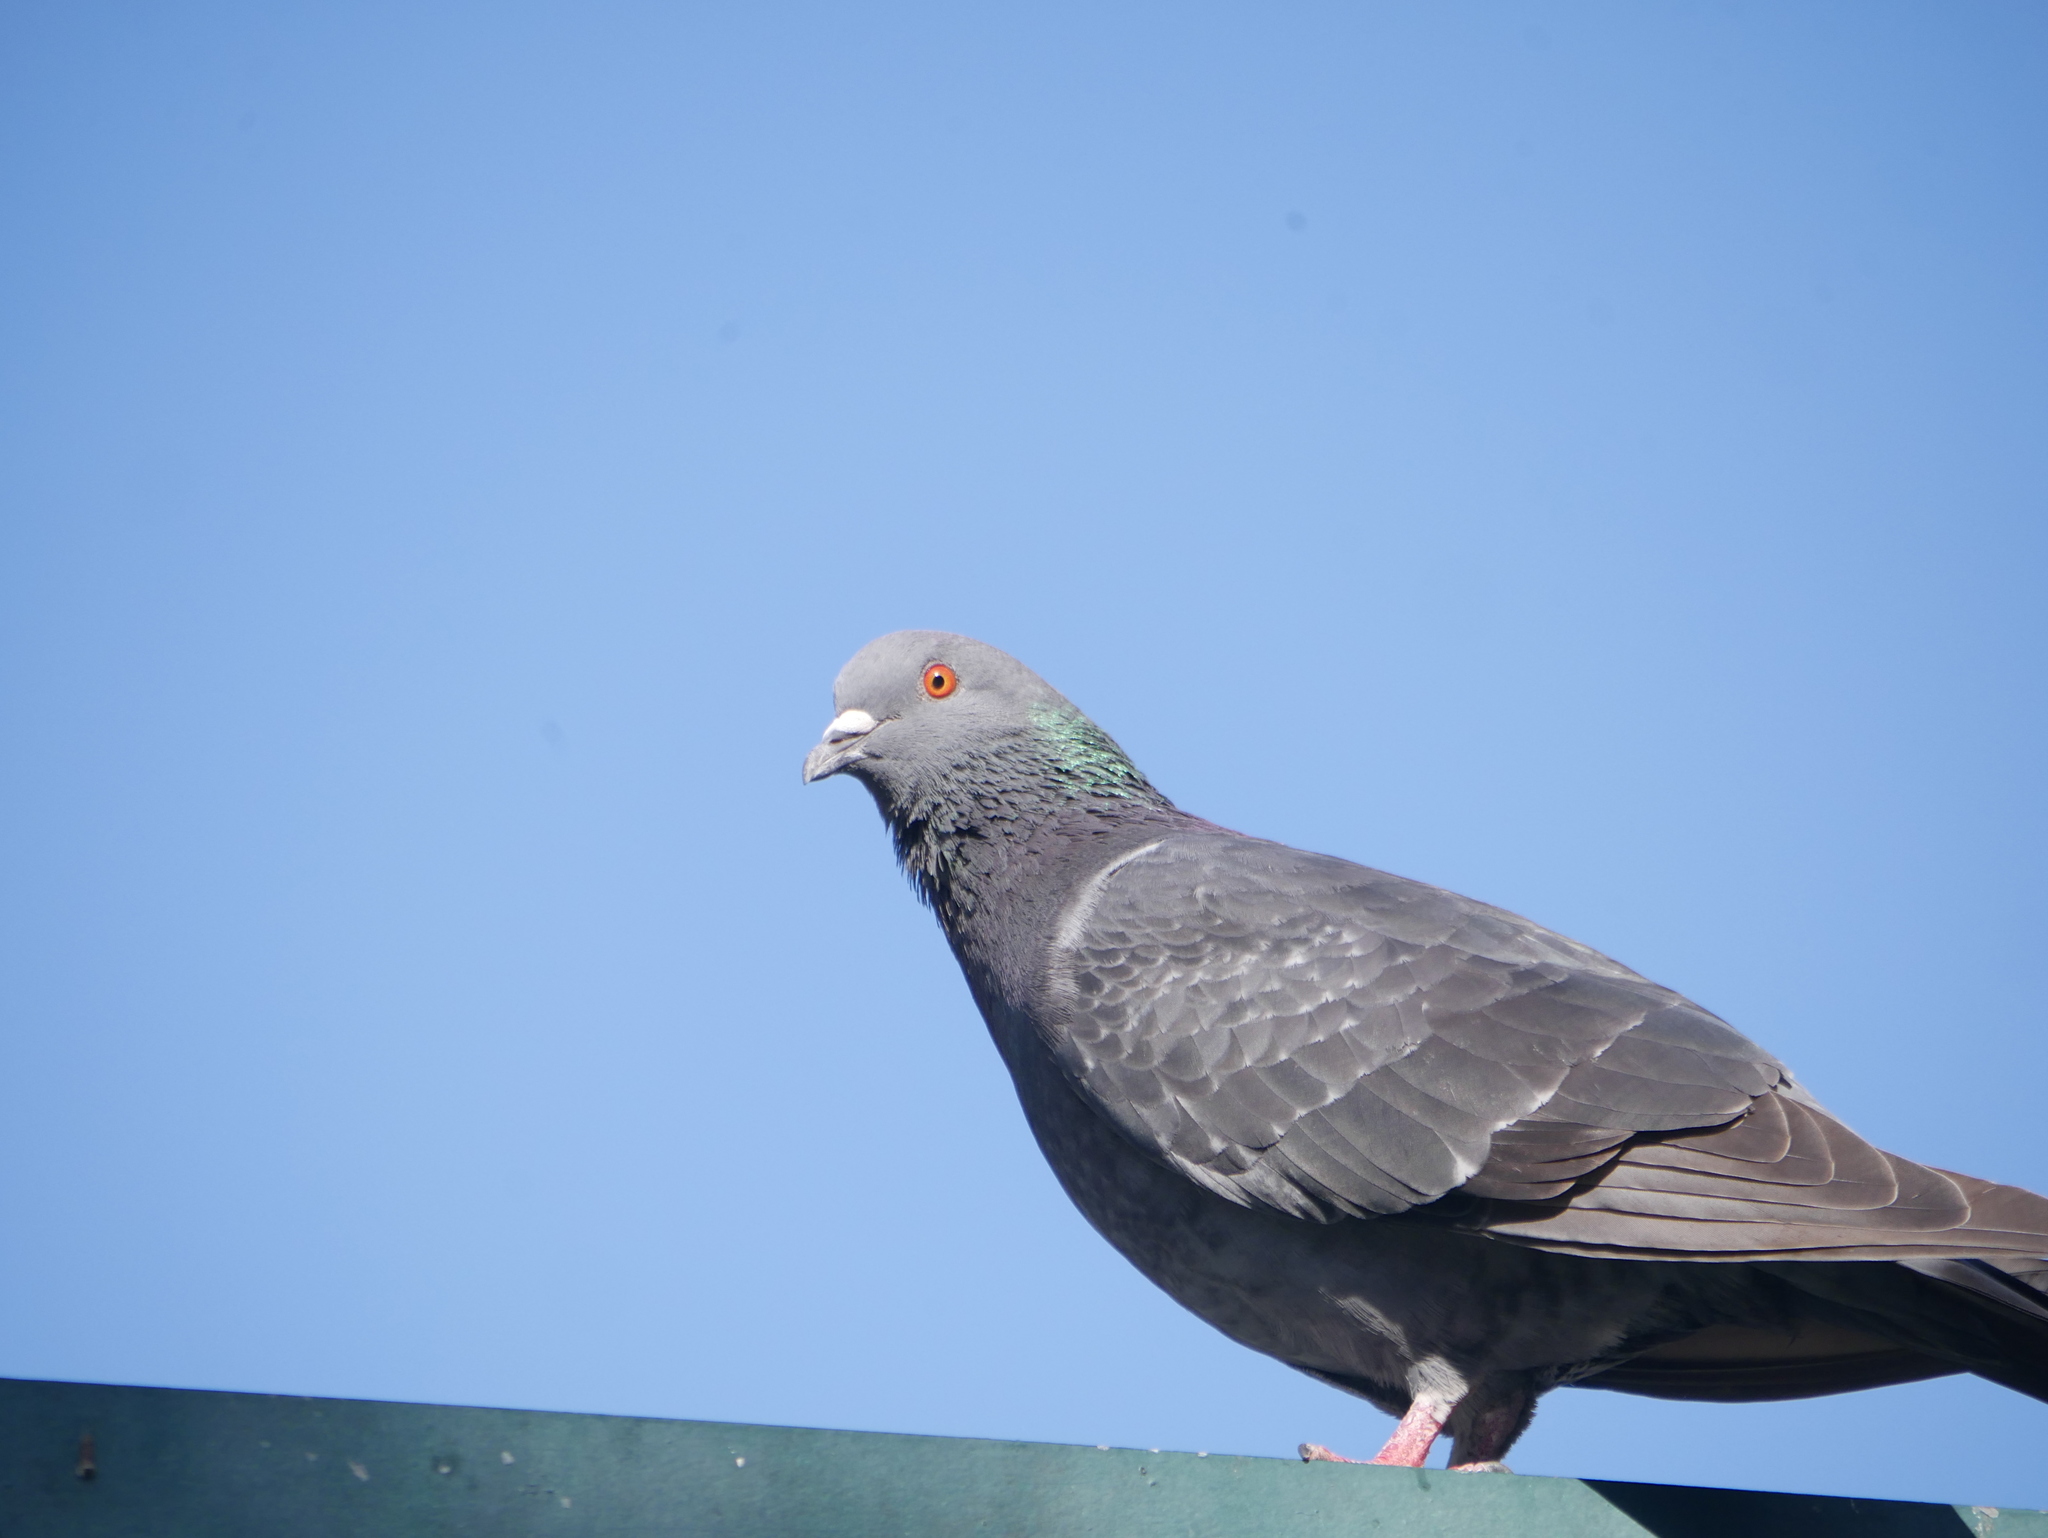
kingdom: Animalia
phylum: Chordata
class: Aves
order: Columbiformes
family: Columbidae
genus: Columba
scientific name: Columba livia
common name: Rock pigeon
